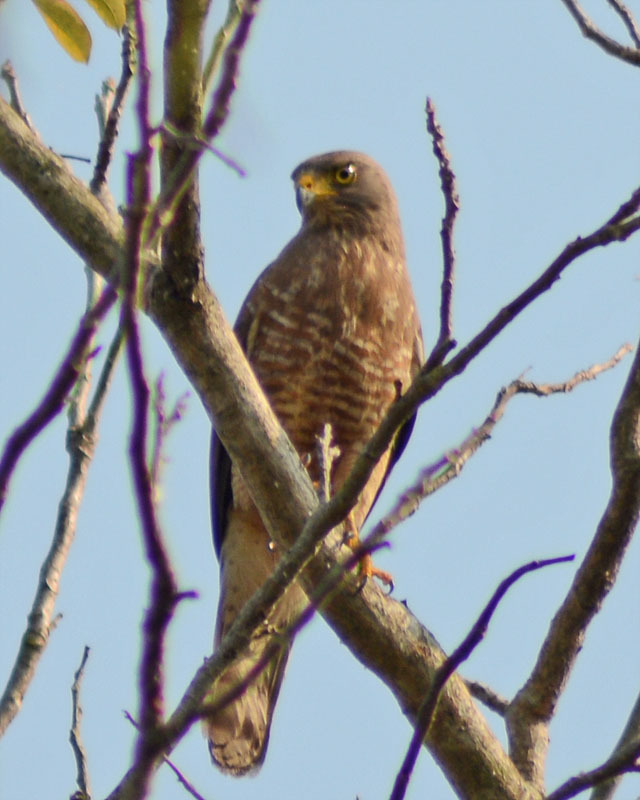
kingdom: Animalia
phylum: Chordata
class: Aves
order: Accipitriformes
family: Accipitridae
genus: Rupornis
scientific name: Rupornis magnirostris
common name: Roadside hawk
